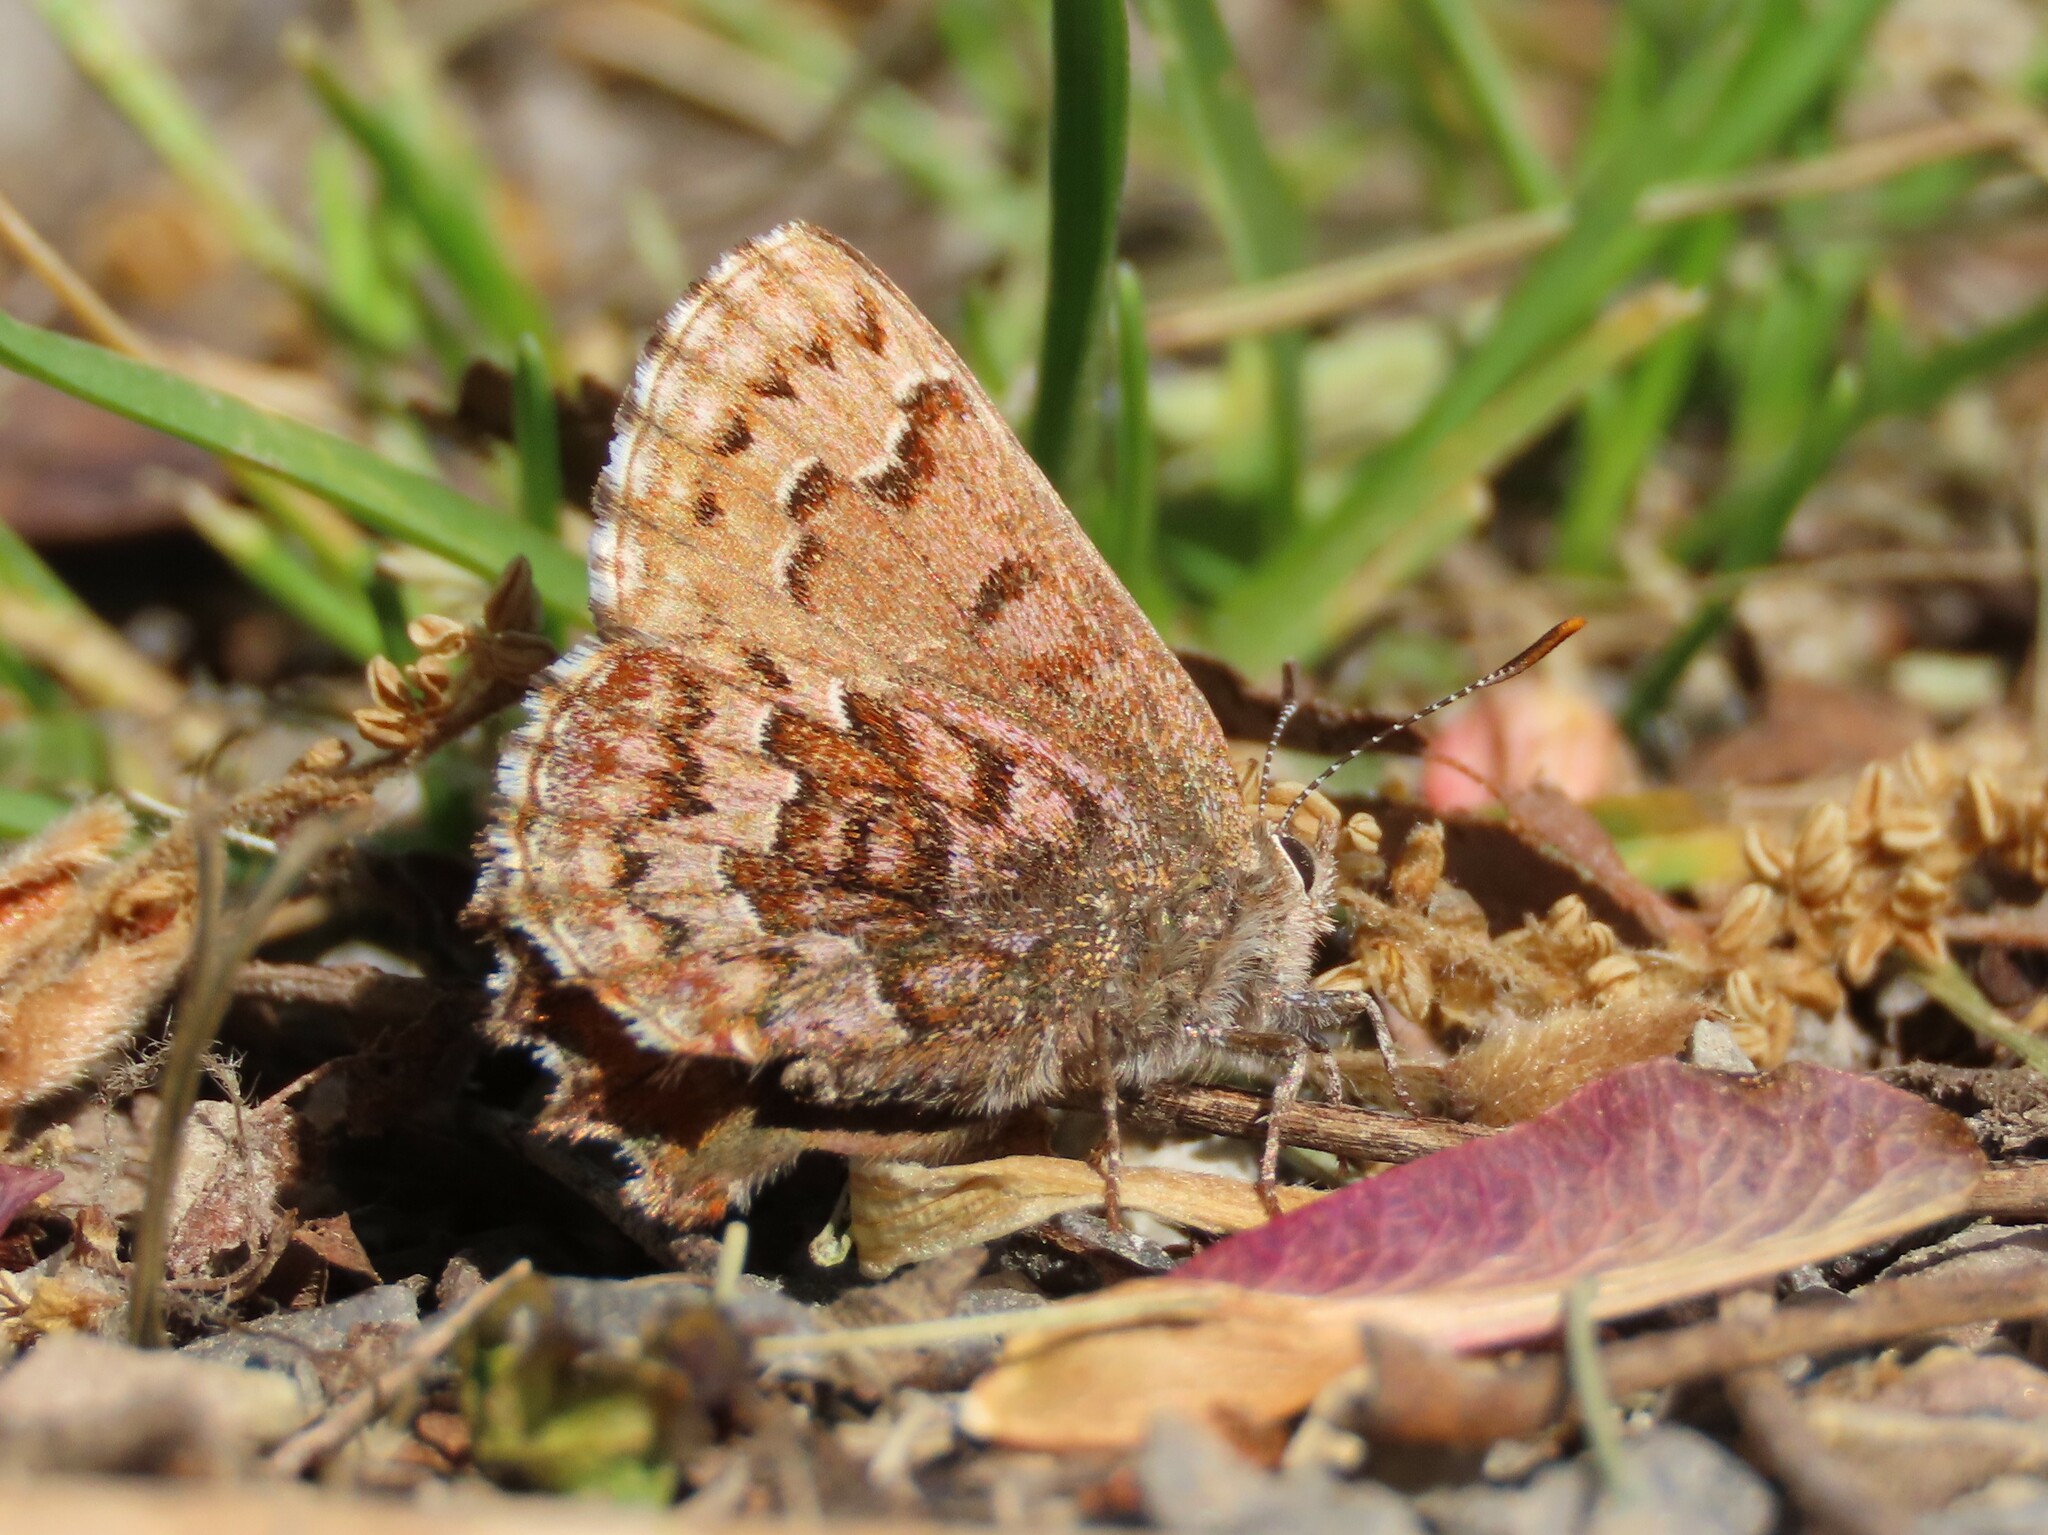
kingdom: Animalia
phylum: Arthropoda
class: Insecta
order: Lepidoptera
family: Lycaenidae
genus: Incisalia
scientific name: Incisalia niphon
